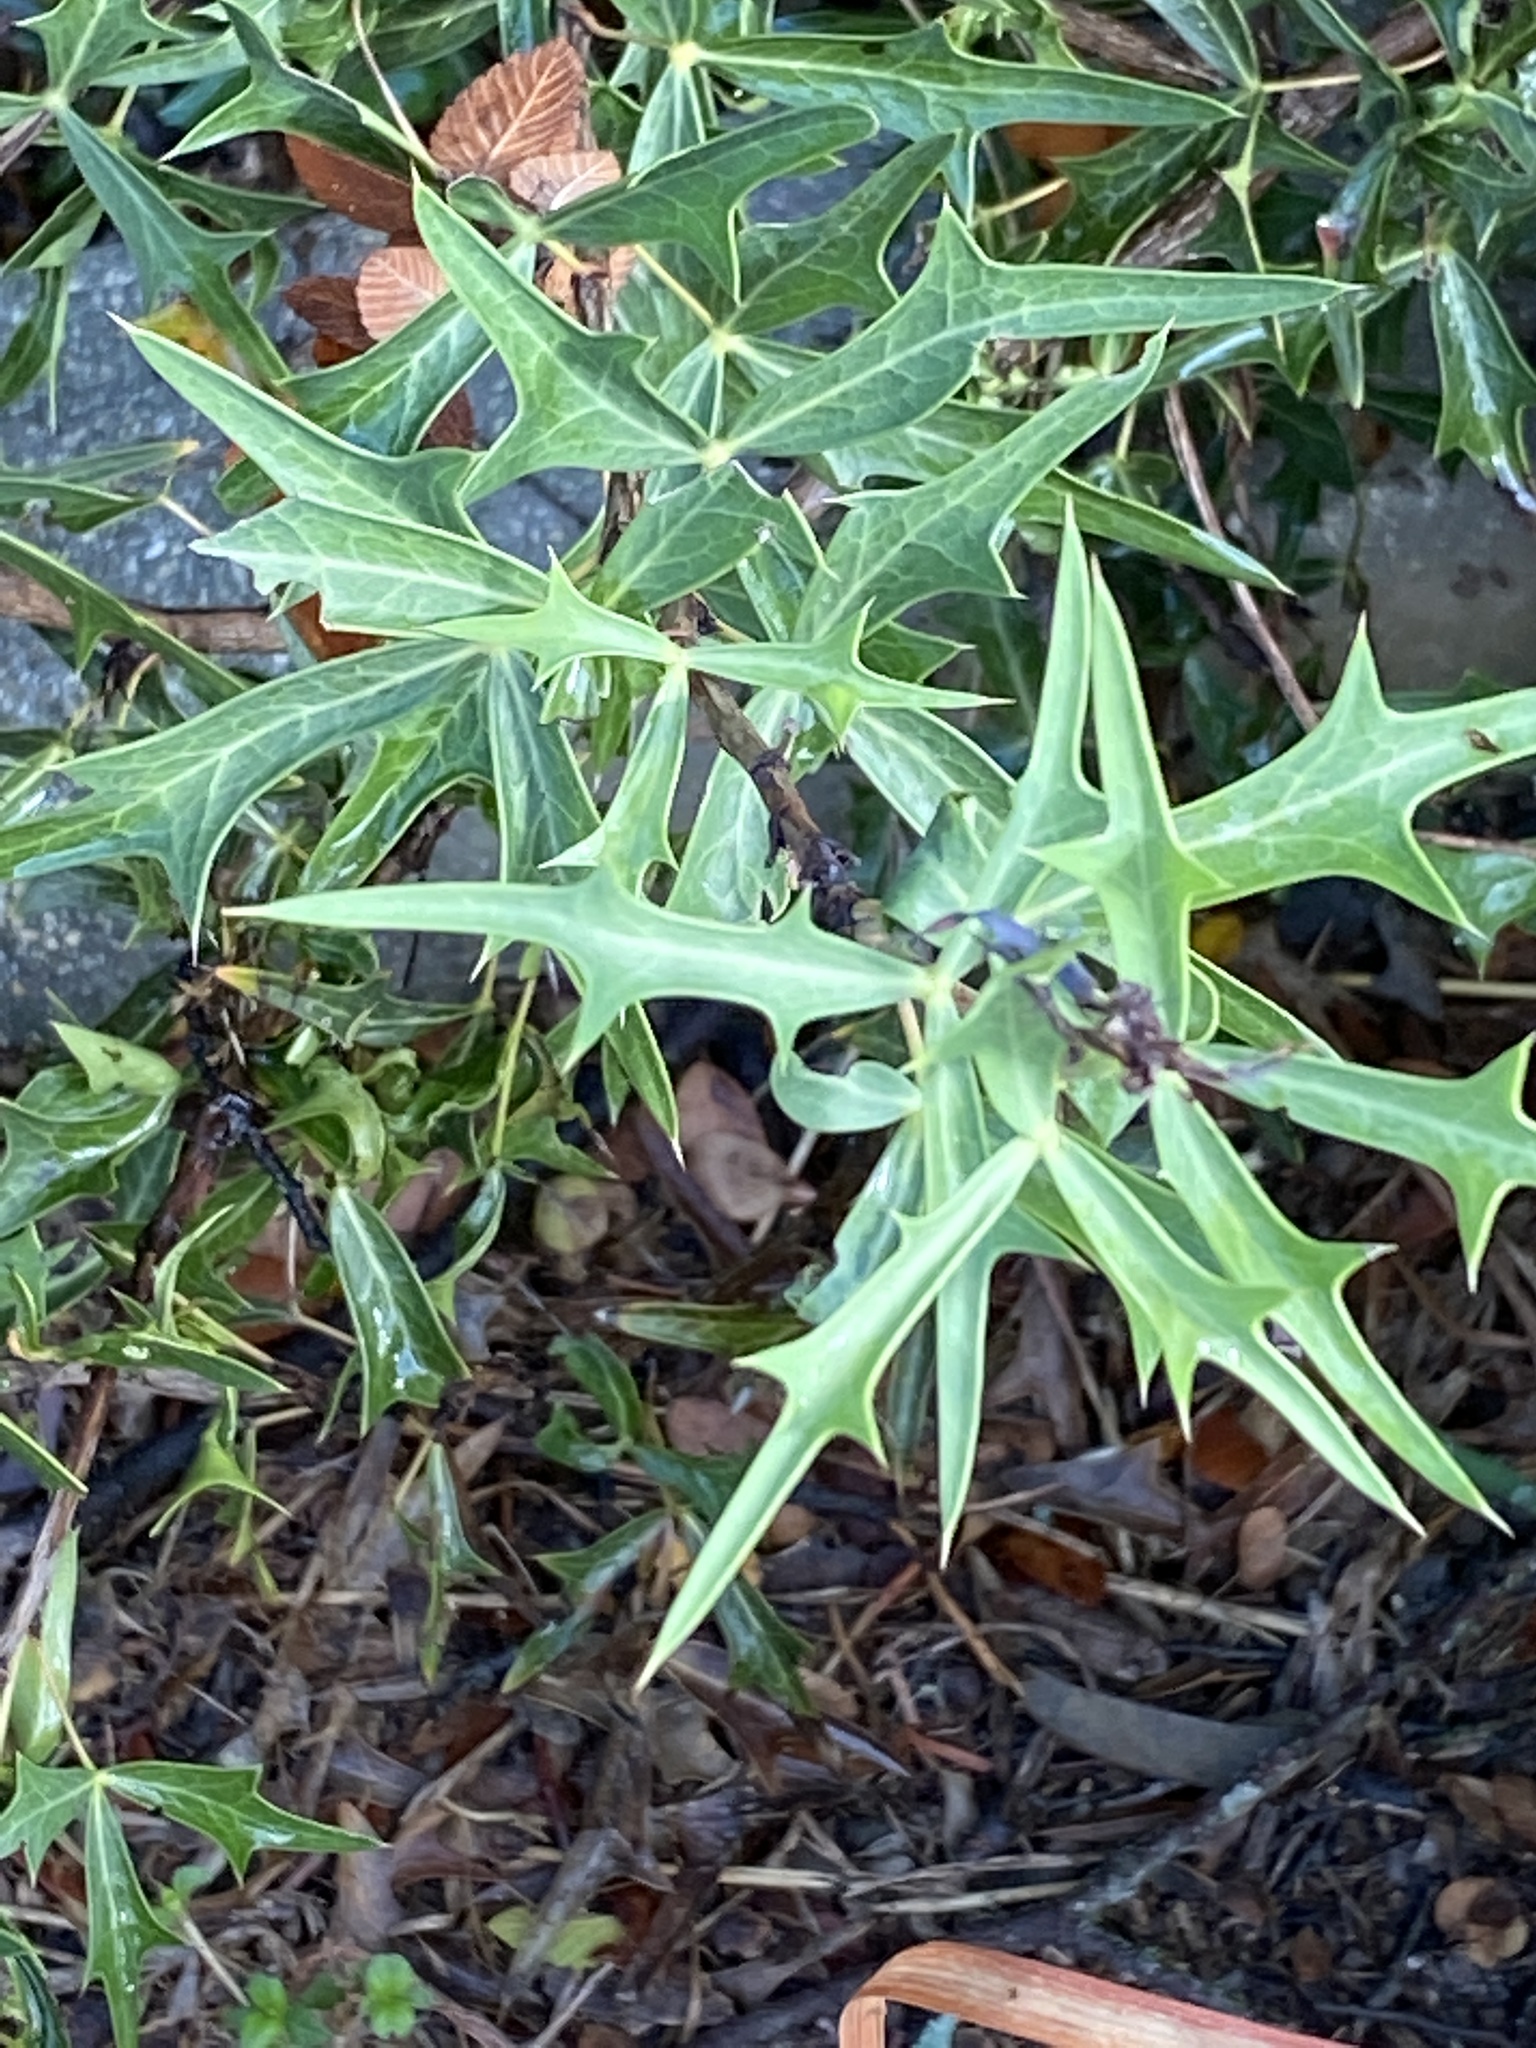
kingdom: Plantae
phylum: Tracheophyta
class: Magnoliopsida
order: Ranunculales
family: Berberidaceae
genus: Alloberberis
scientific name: Alloberberis trifoliolata
